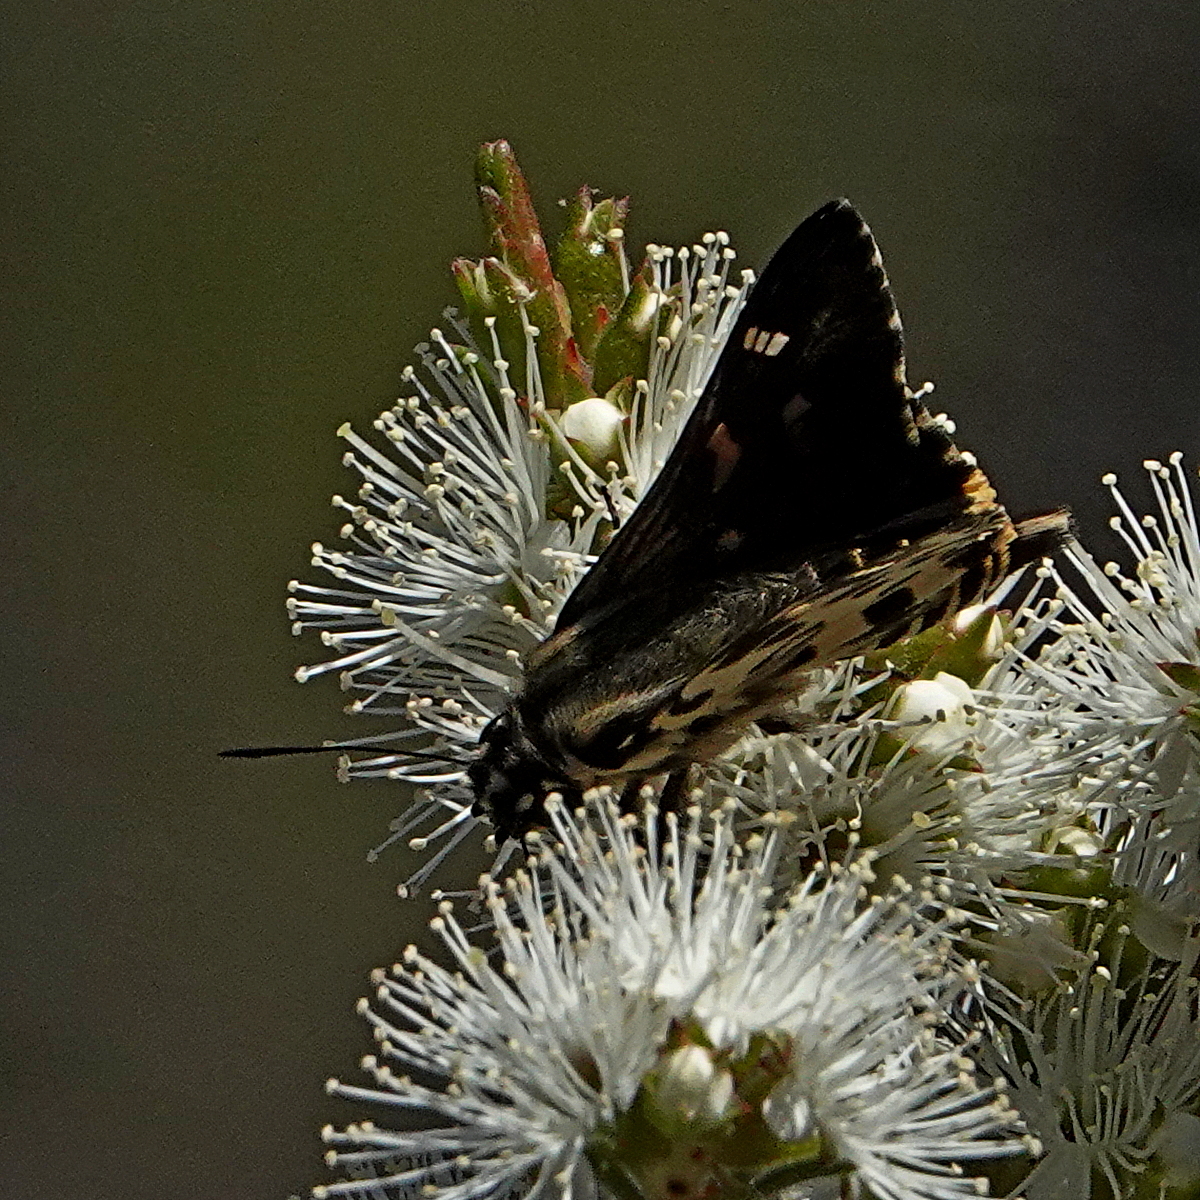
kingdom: Animalia
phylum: Arthropoda
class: Insecta
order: Lepidoptera
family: Hesperiidae
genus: Hesperilla
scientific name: Hesperilla ornata
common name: Spotted sedge-skipper
